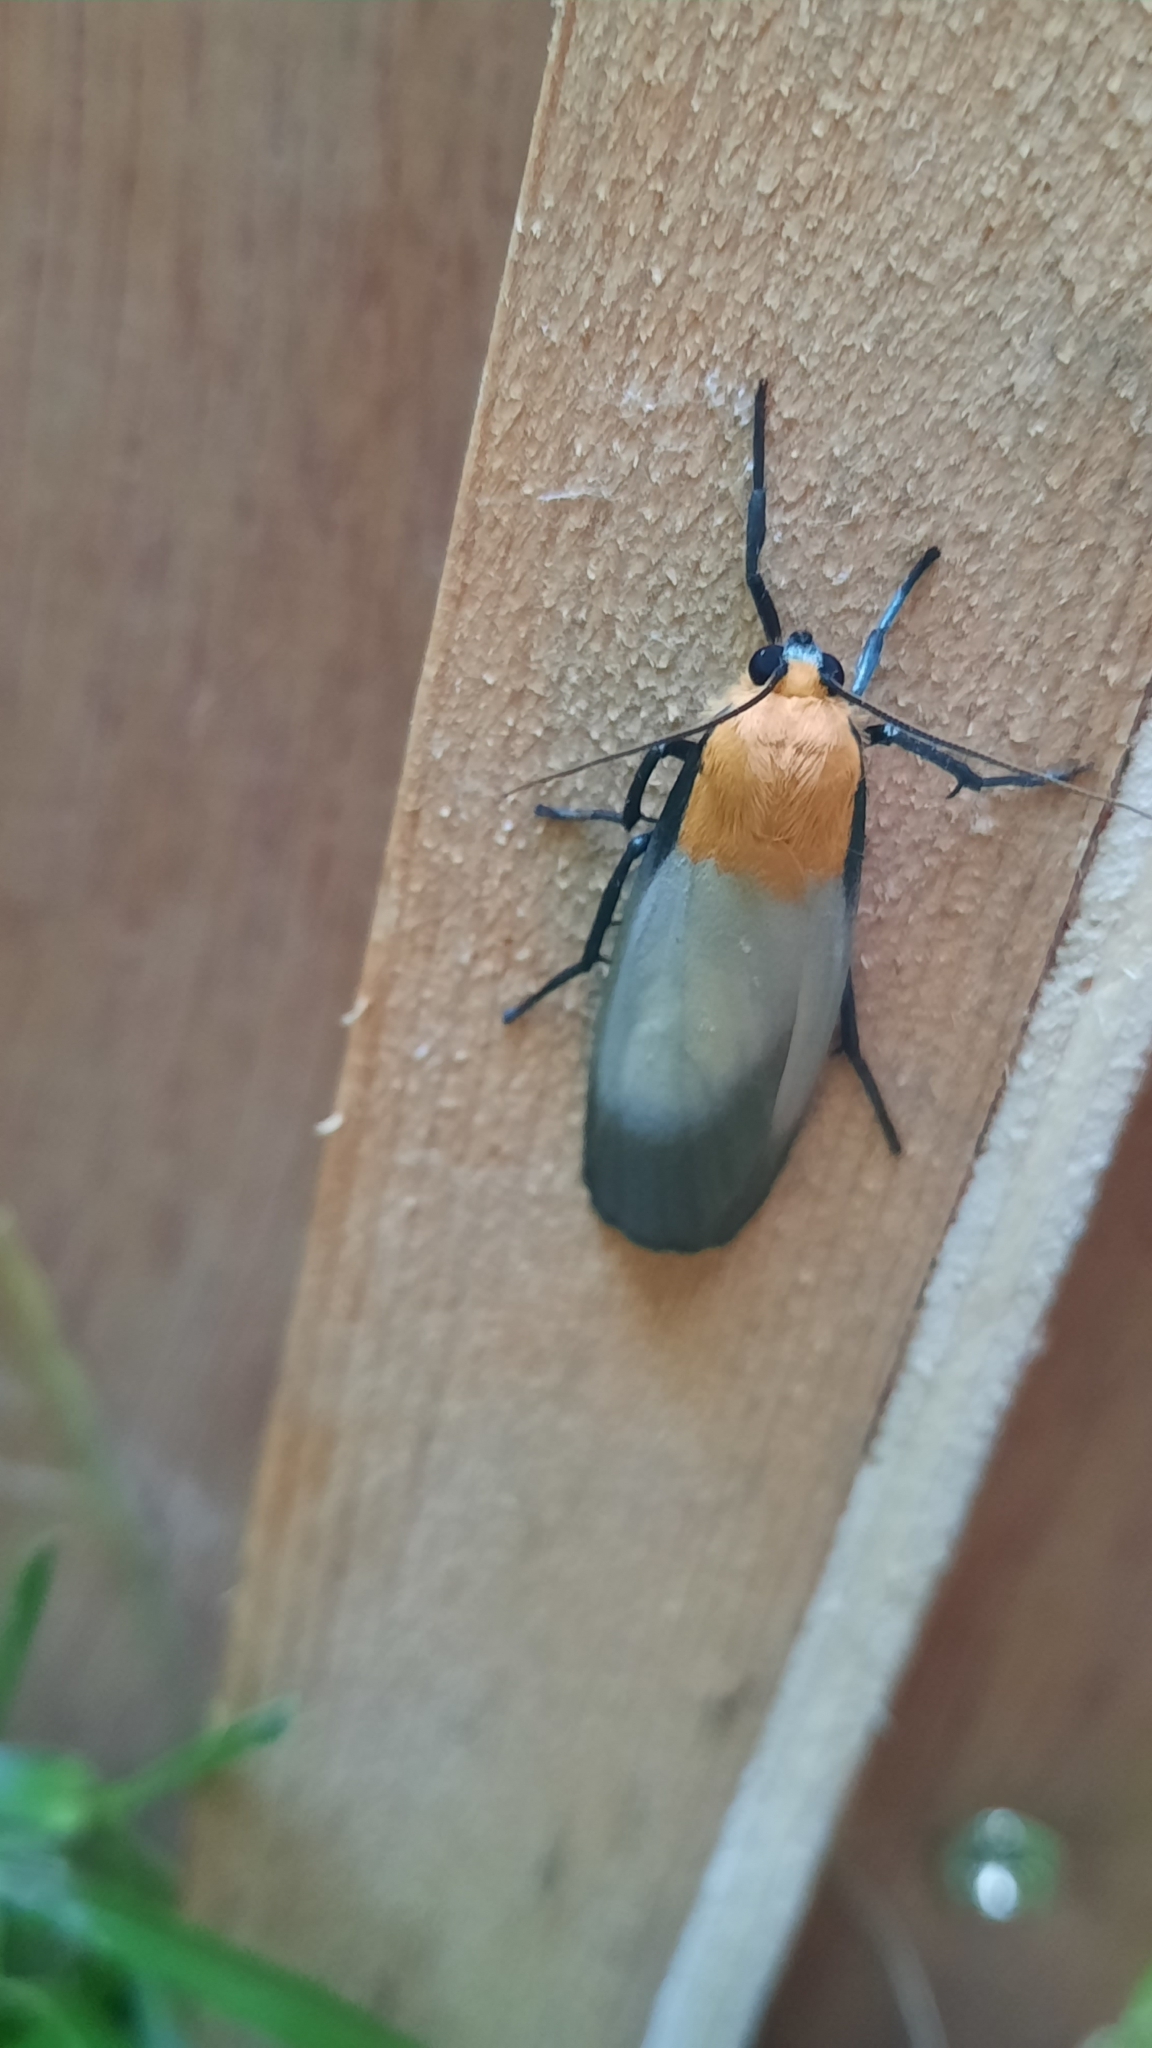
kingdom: Animalia
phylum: Arthropoda
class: Insecta
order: Lepidoptera
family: Erebidae
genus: Lithosia
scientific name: Lithosia quadra
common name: Four-spotted footman
